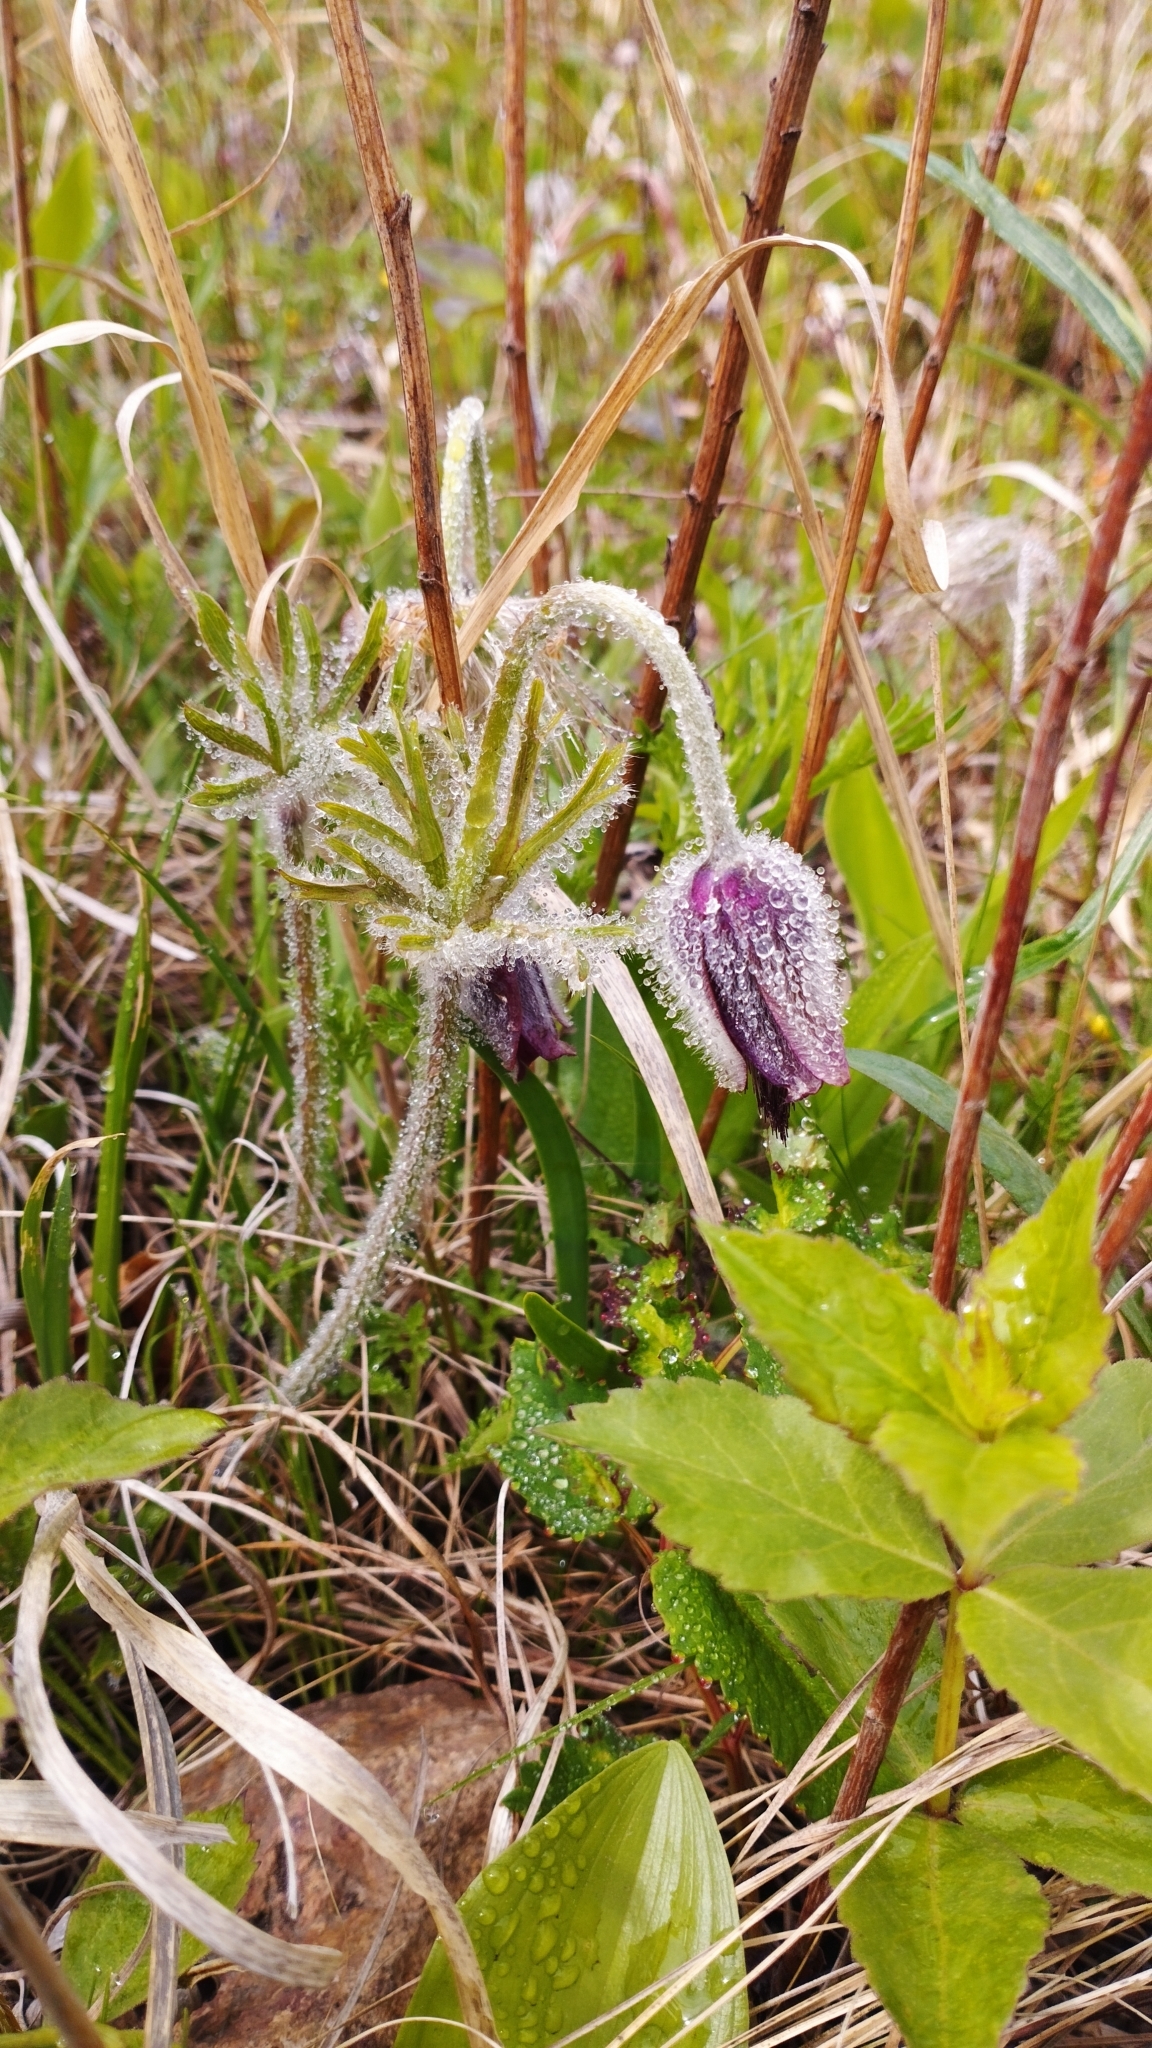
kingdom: Plantae
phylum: Tracheophyta
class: Magnoliopsida
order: Ranunculales
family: Ranunculaceae
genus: Pulsatilla
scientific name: Pulsatilla cernua
